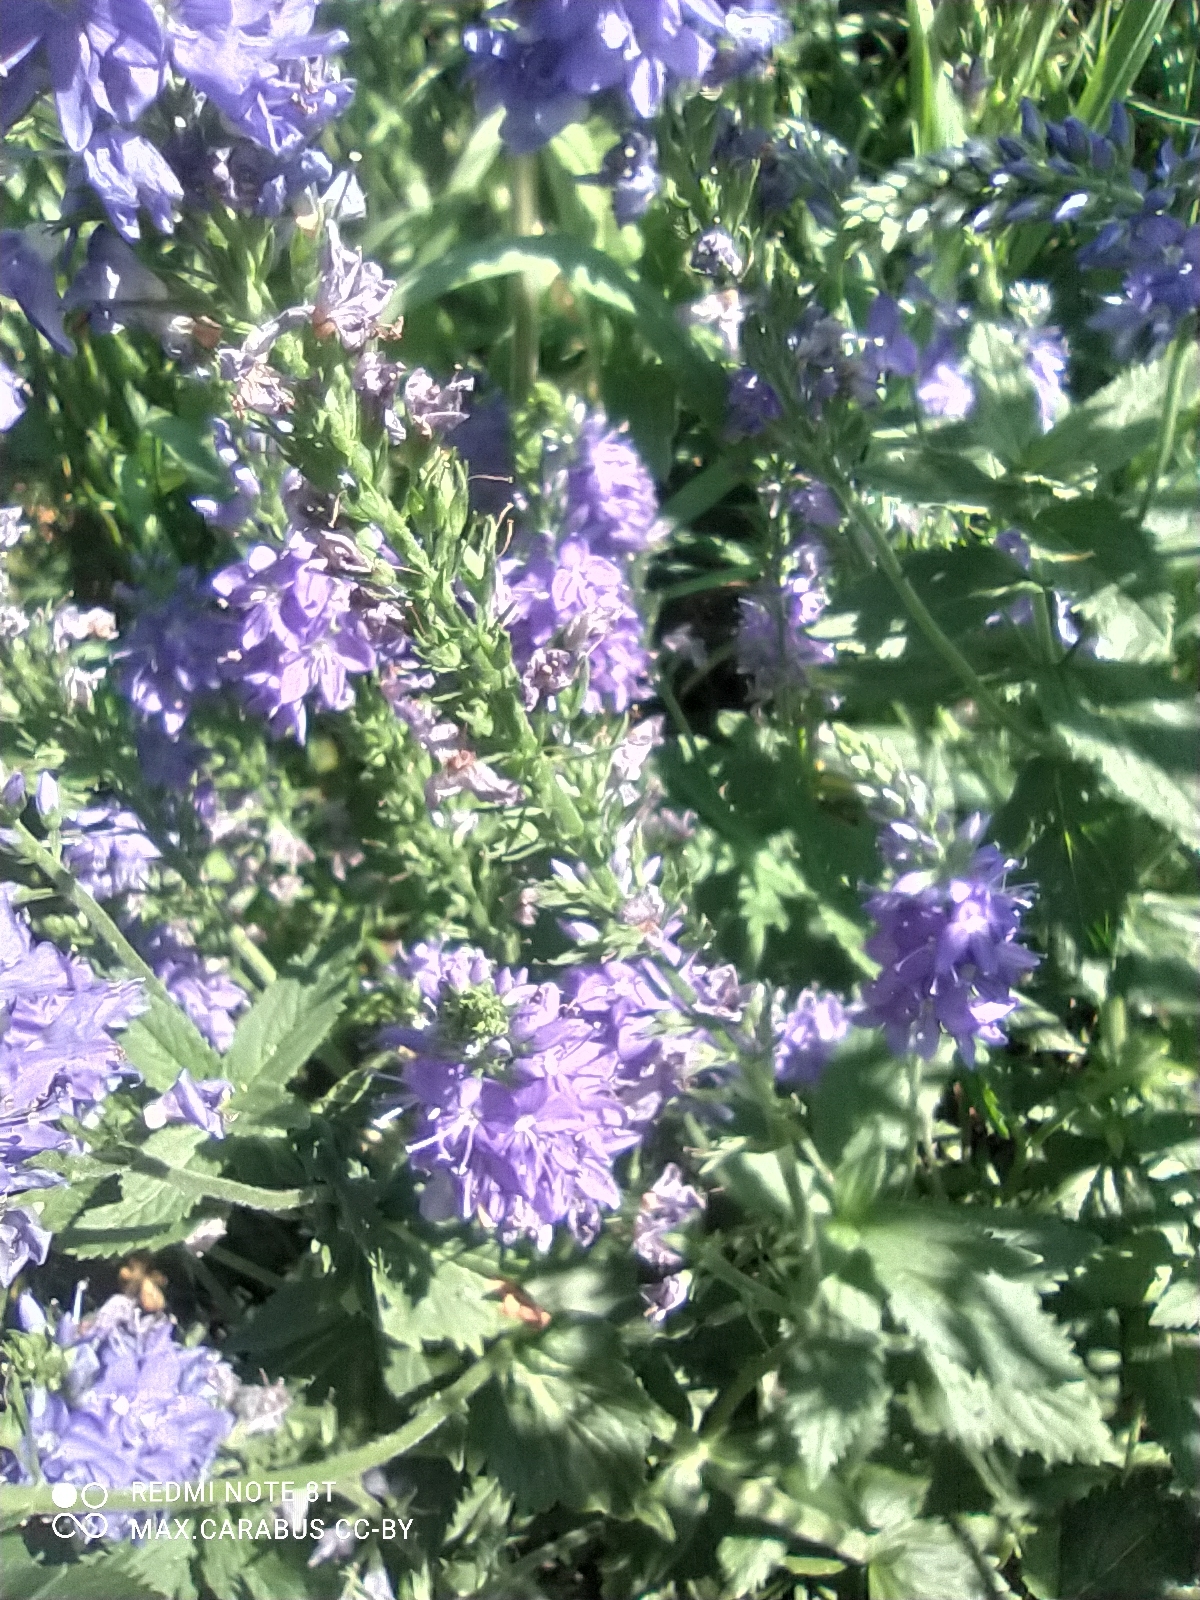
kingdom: Plantae
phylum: Tracheophyta
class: Magnoliopsida
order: Lamiales
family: Plantaginaceae
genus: Veronica
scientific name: Veronica teucrium
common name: Large speedwell
